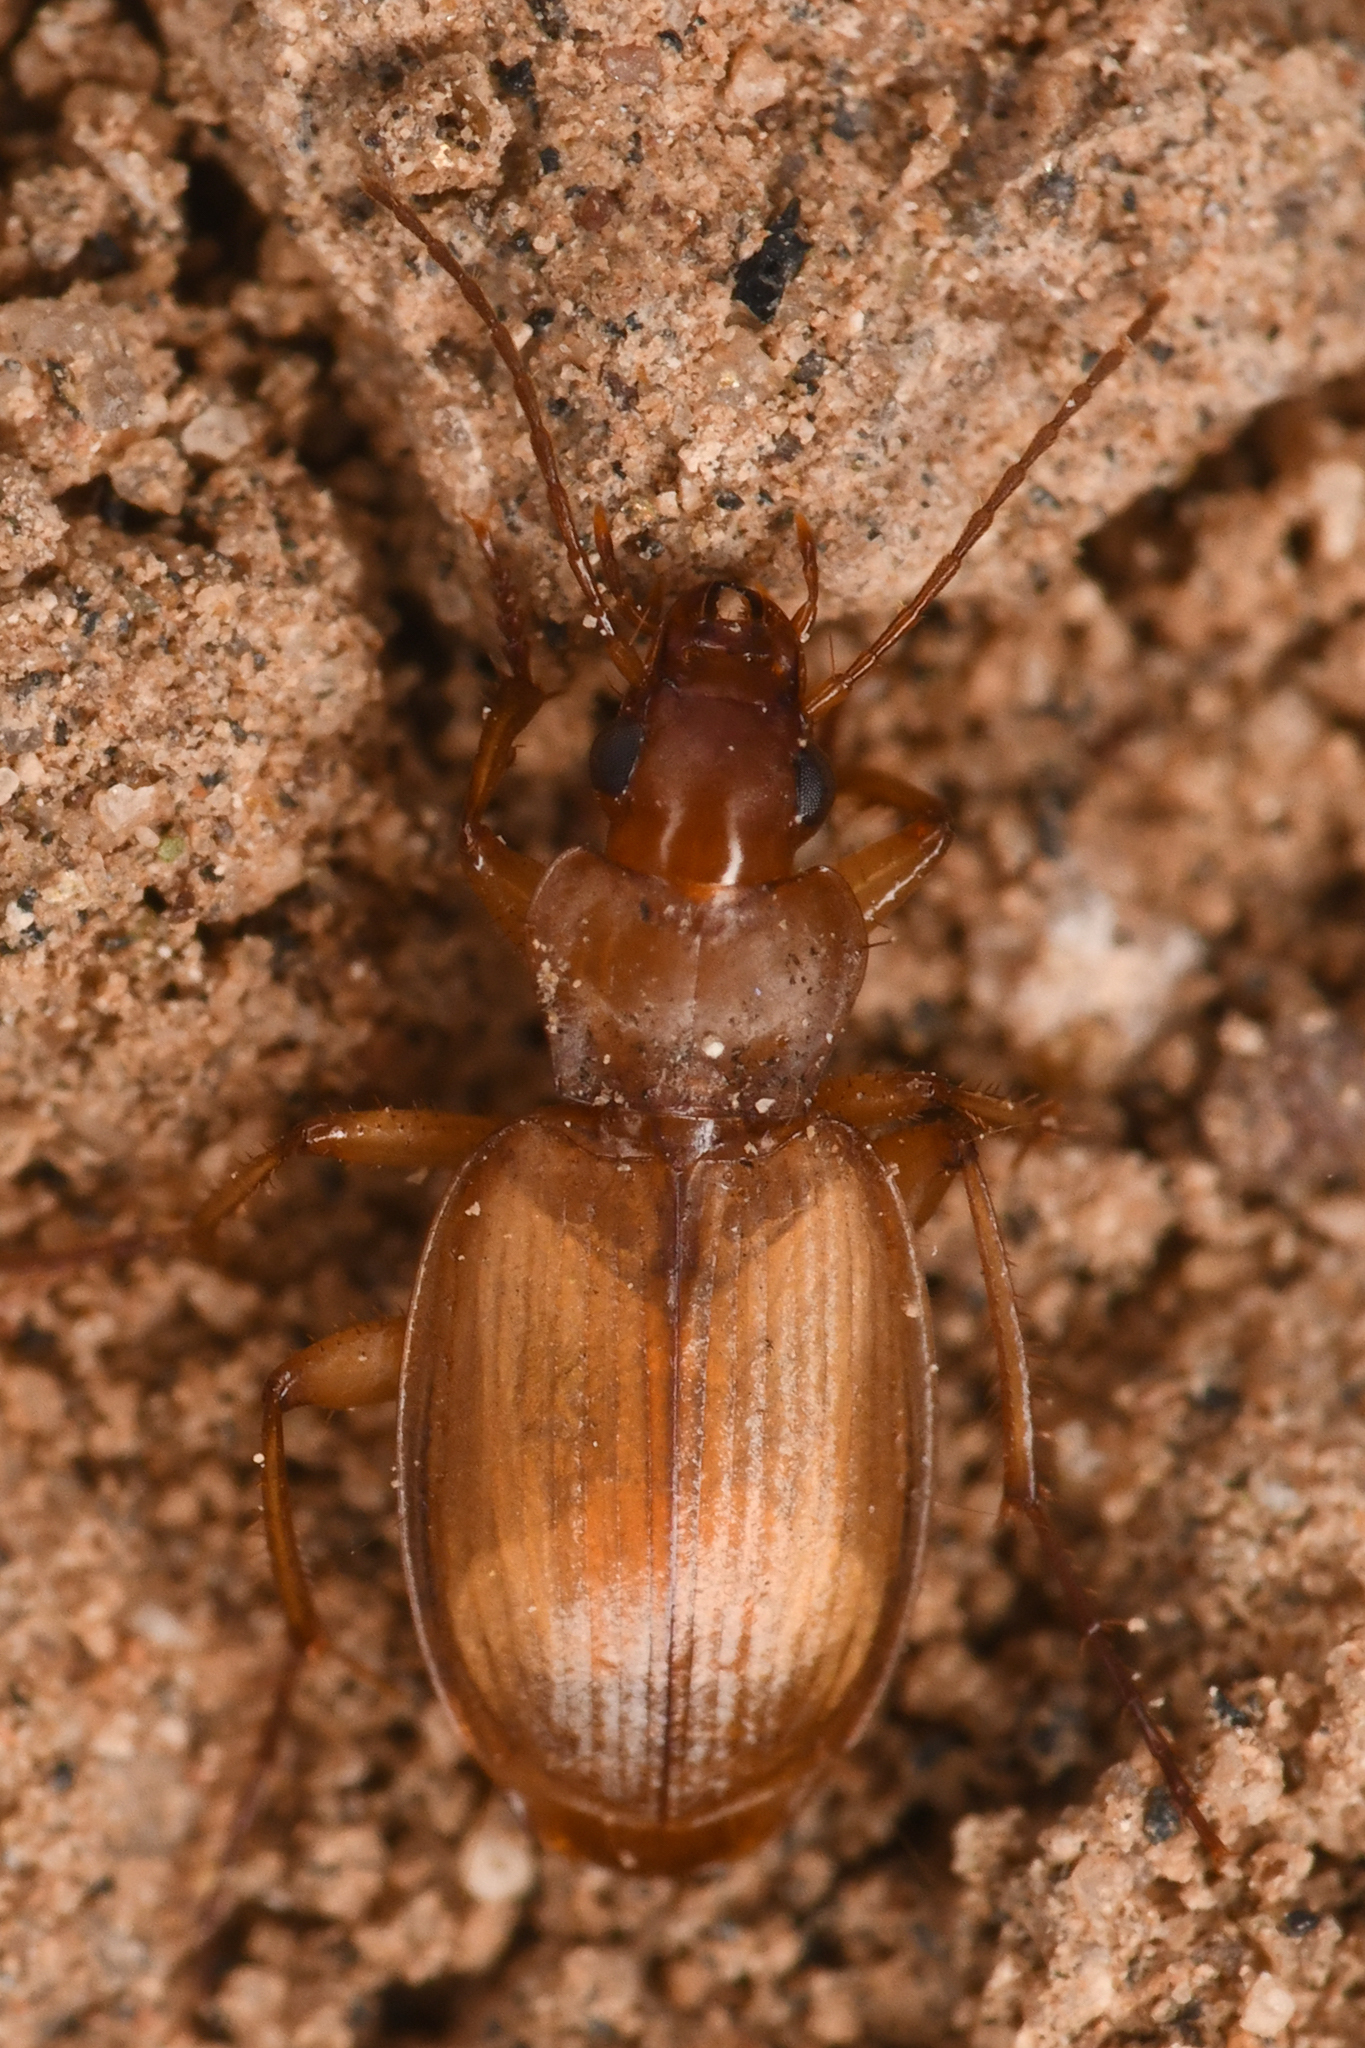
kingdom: Animalia
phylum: Arthropoda
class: Insecta
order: Coleoptera
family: Carabidae
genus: Tetragonoderus
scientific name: Tetragonoderus pallidus
